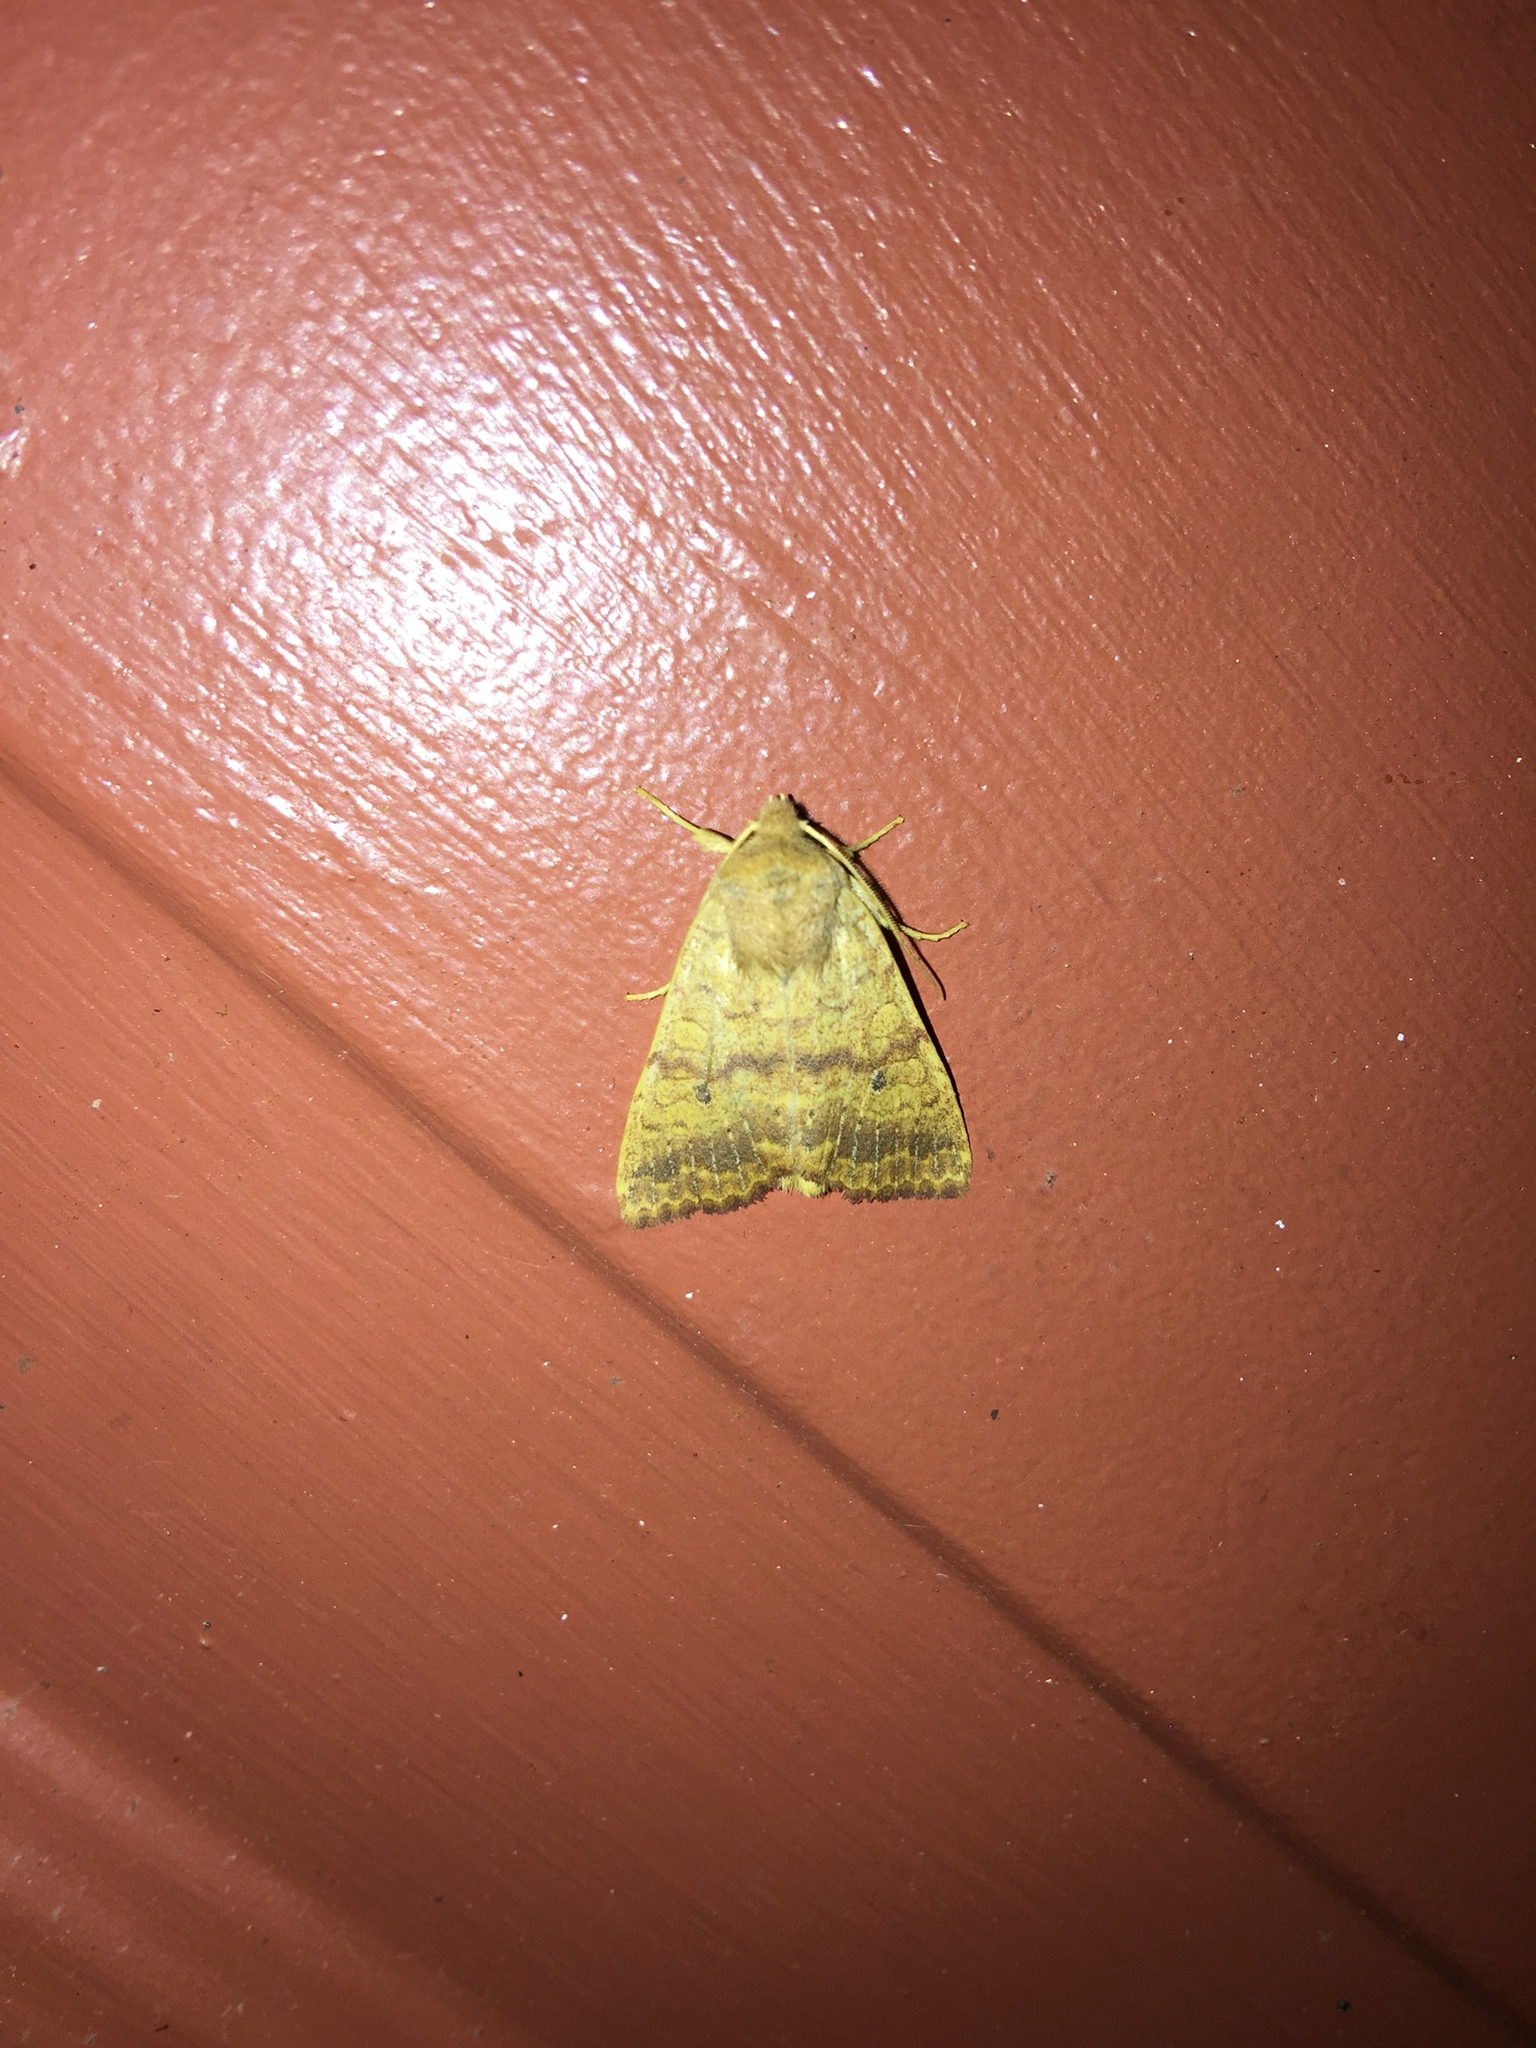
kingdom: Animalia
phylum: Arthropoda
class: Insecta
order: Lepidoptera
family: Noctuidae
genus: Agrochola
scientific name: Agrochola bicolorago
